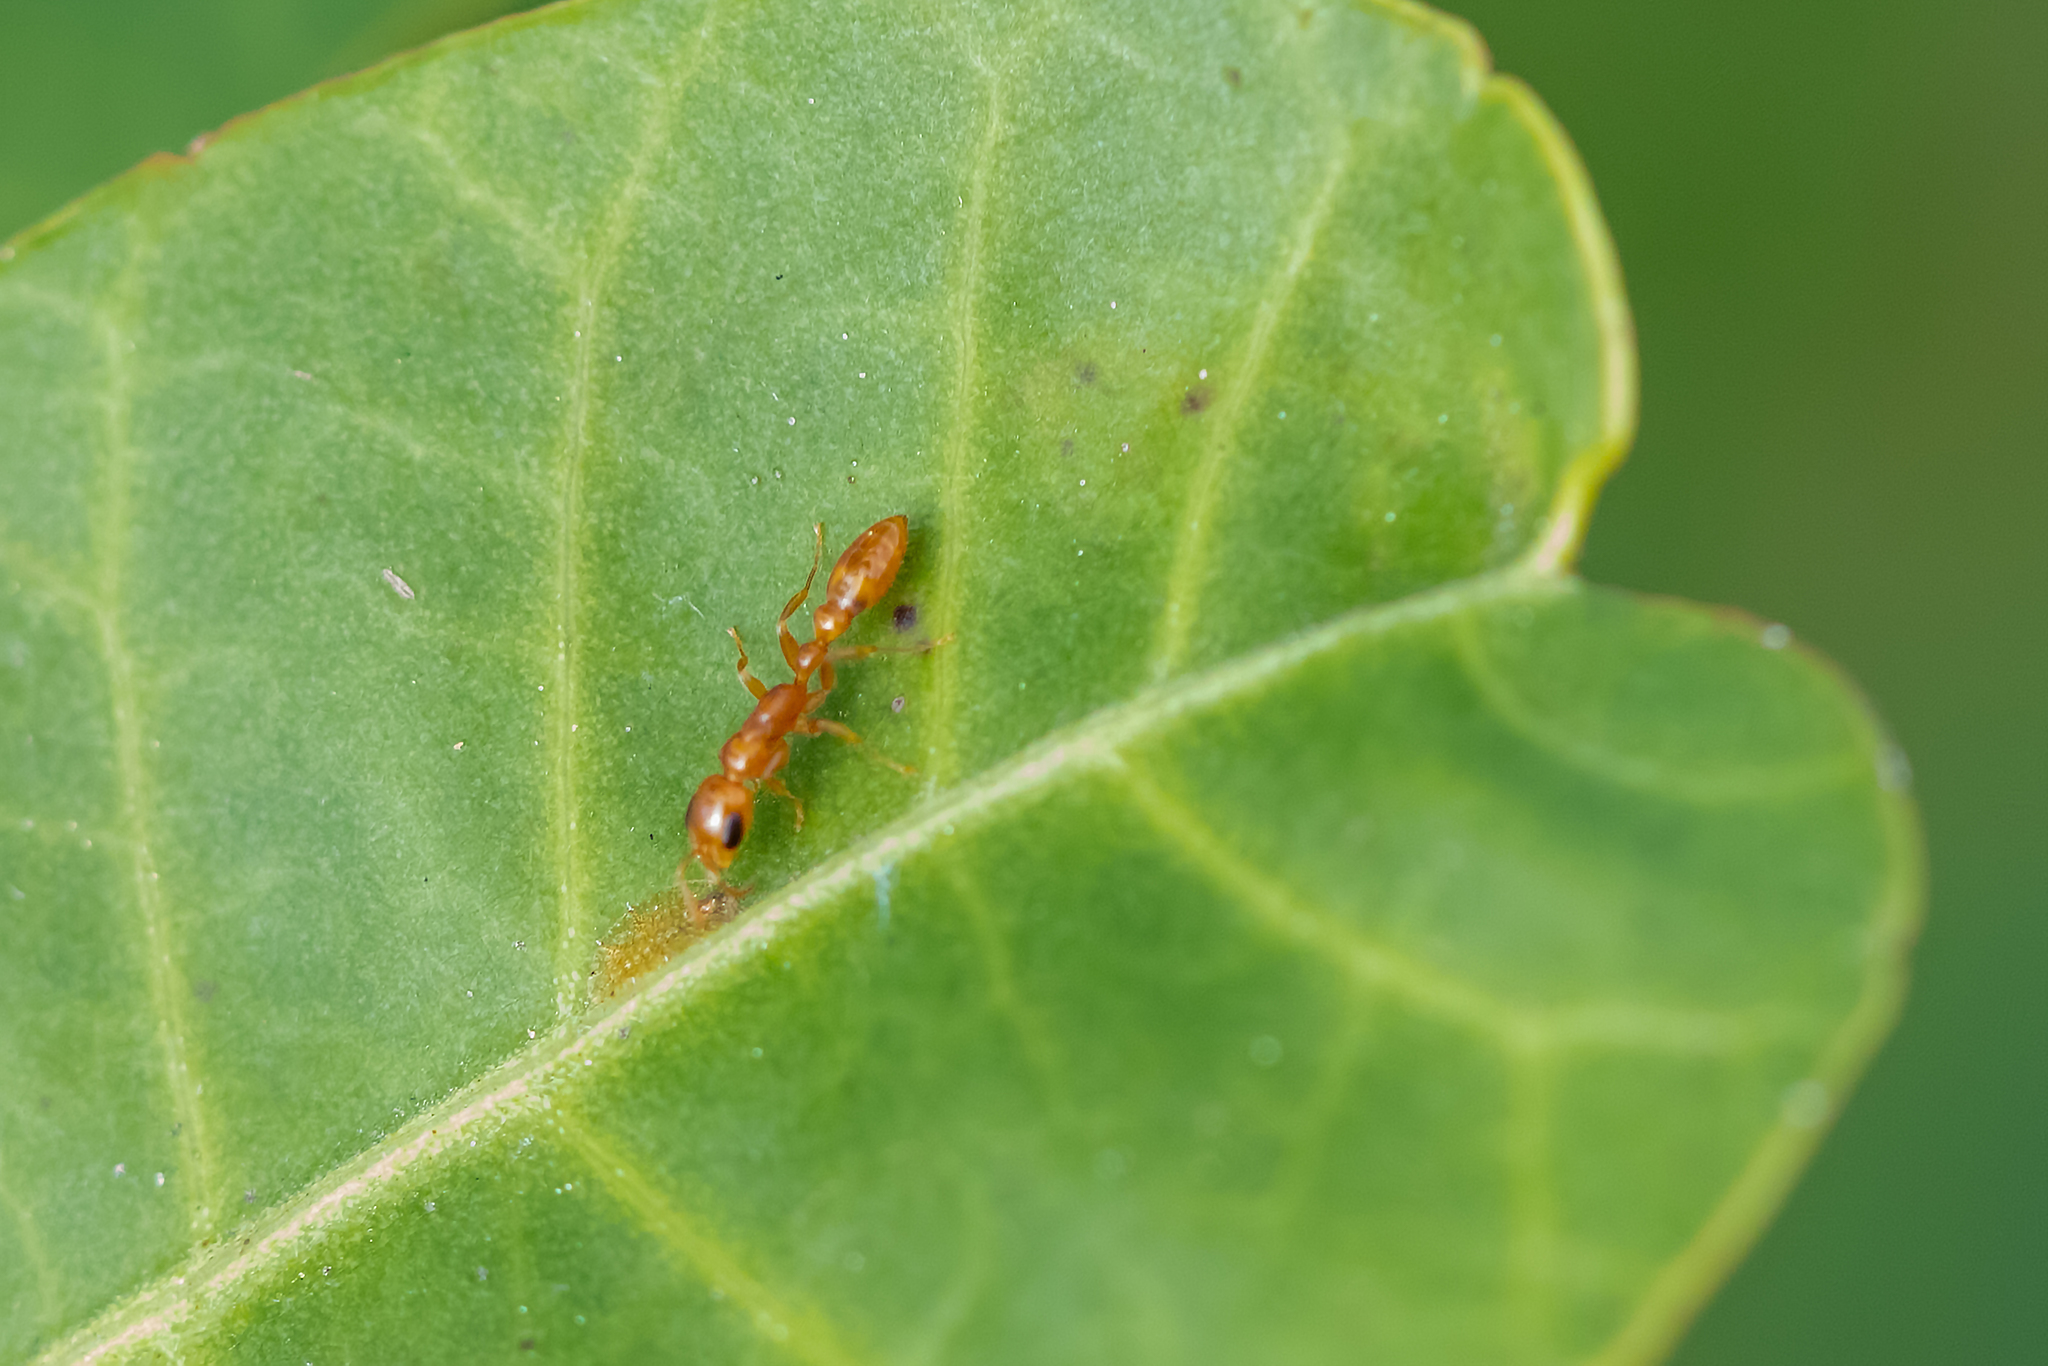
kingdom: Animalia
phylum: Arthropoda
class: Insecta
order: Hymenoptera
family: Formicidae
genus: Pseudomyrmex
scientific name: Pseudomyrmex pallidus
